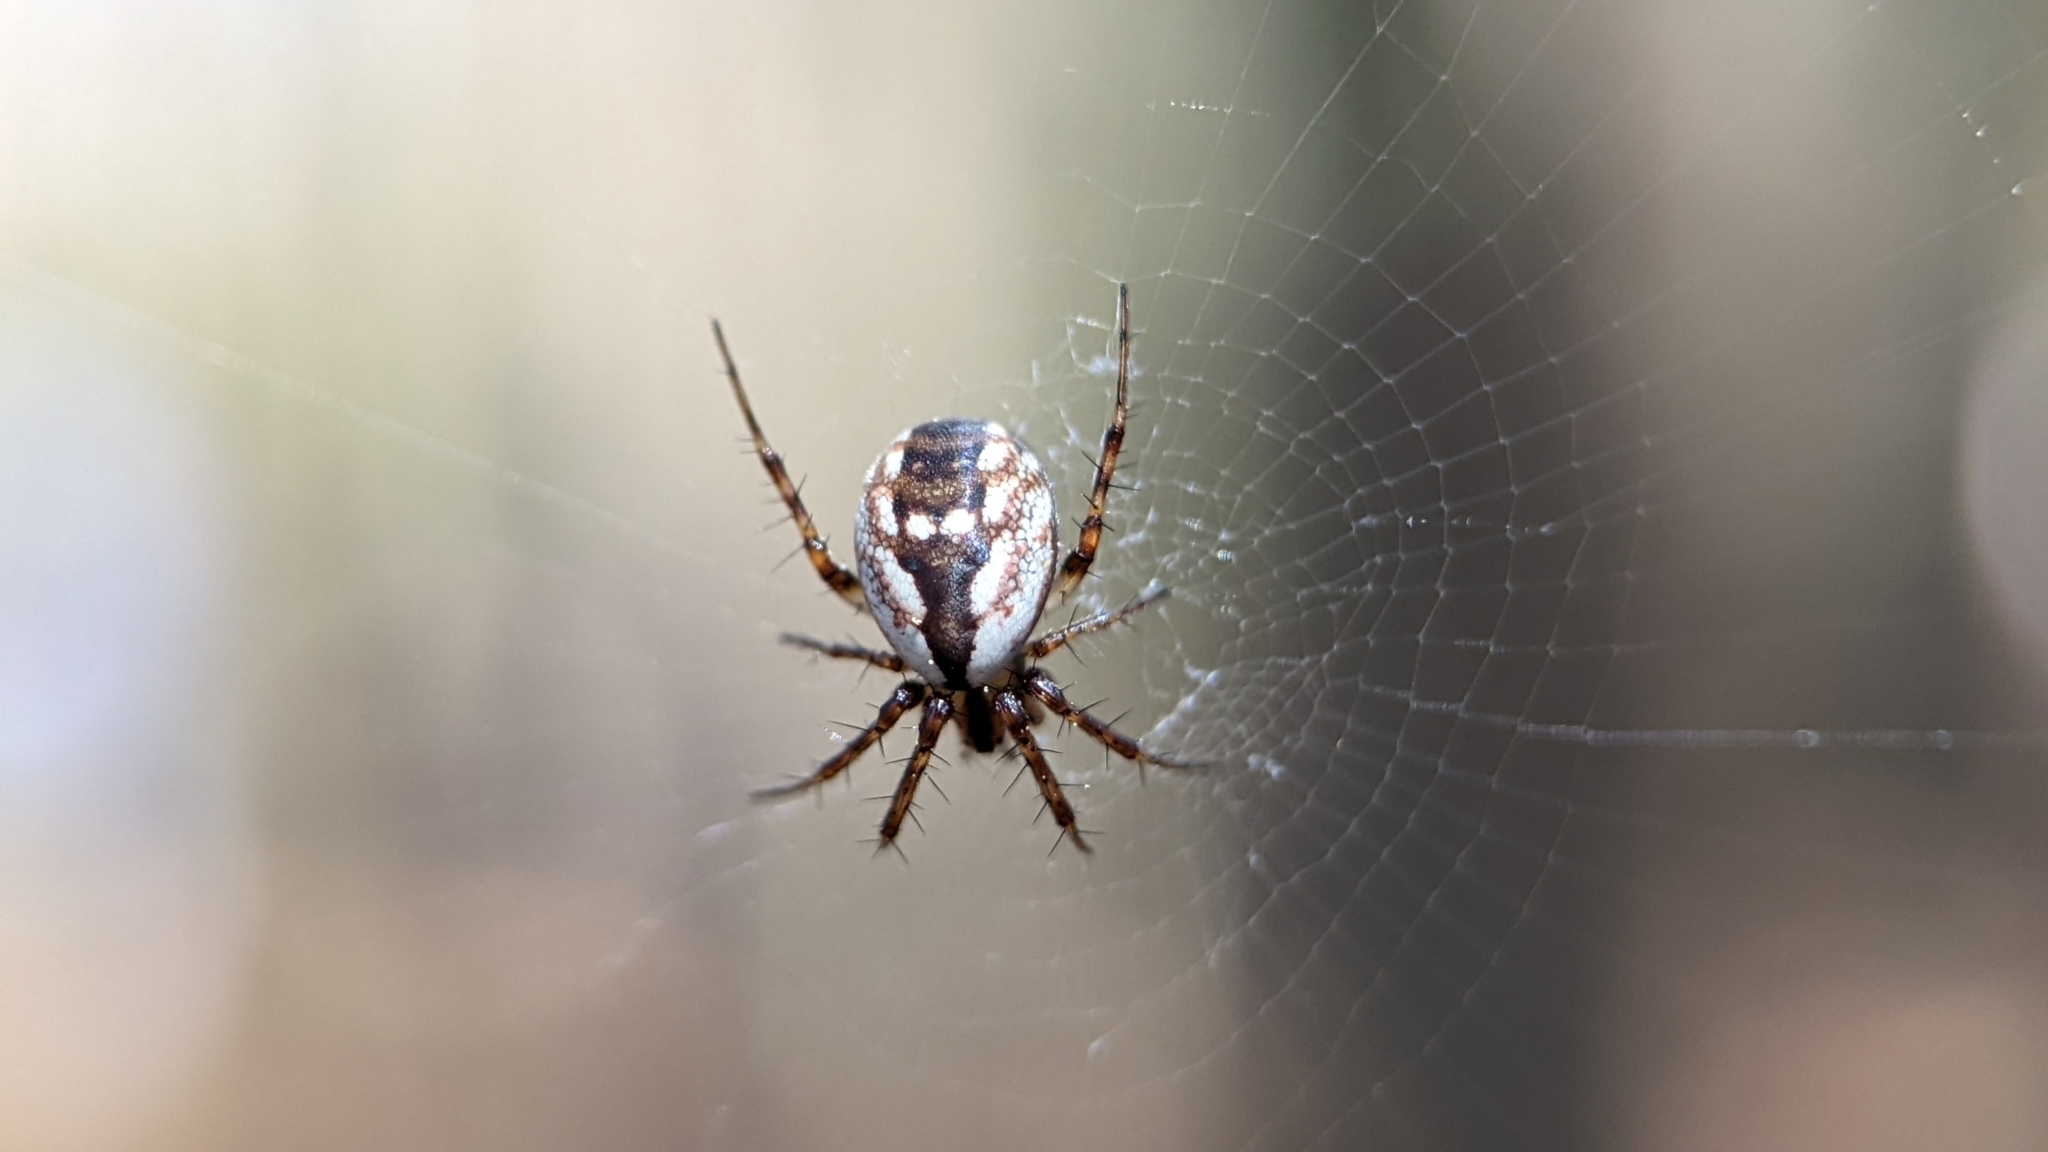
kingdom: Animalia
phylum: Arthropoda
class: Arachnida
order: Araneae
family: Araneidae
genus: Mangora
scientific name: Mangora placida
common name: Tuft-legged orbweaver
